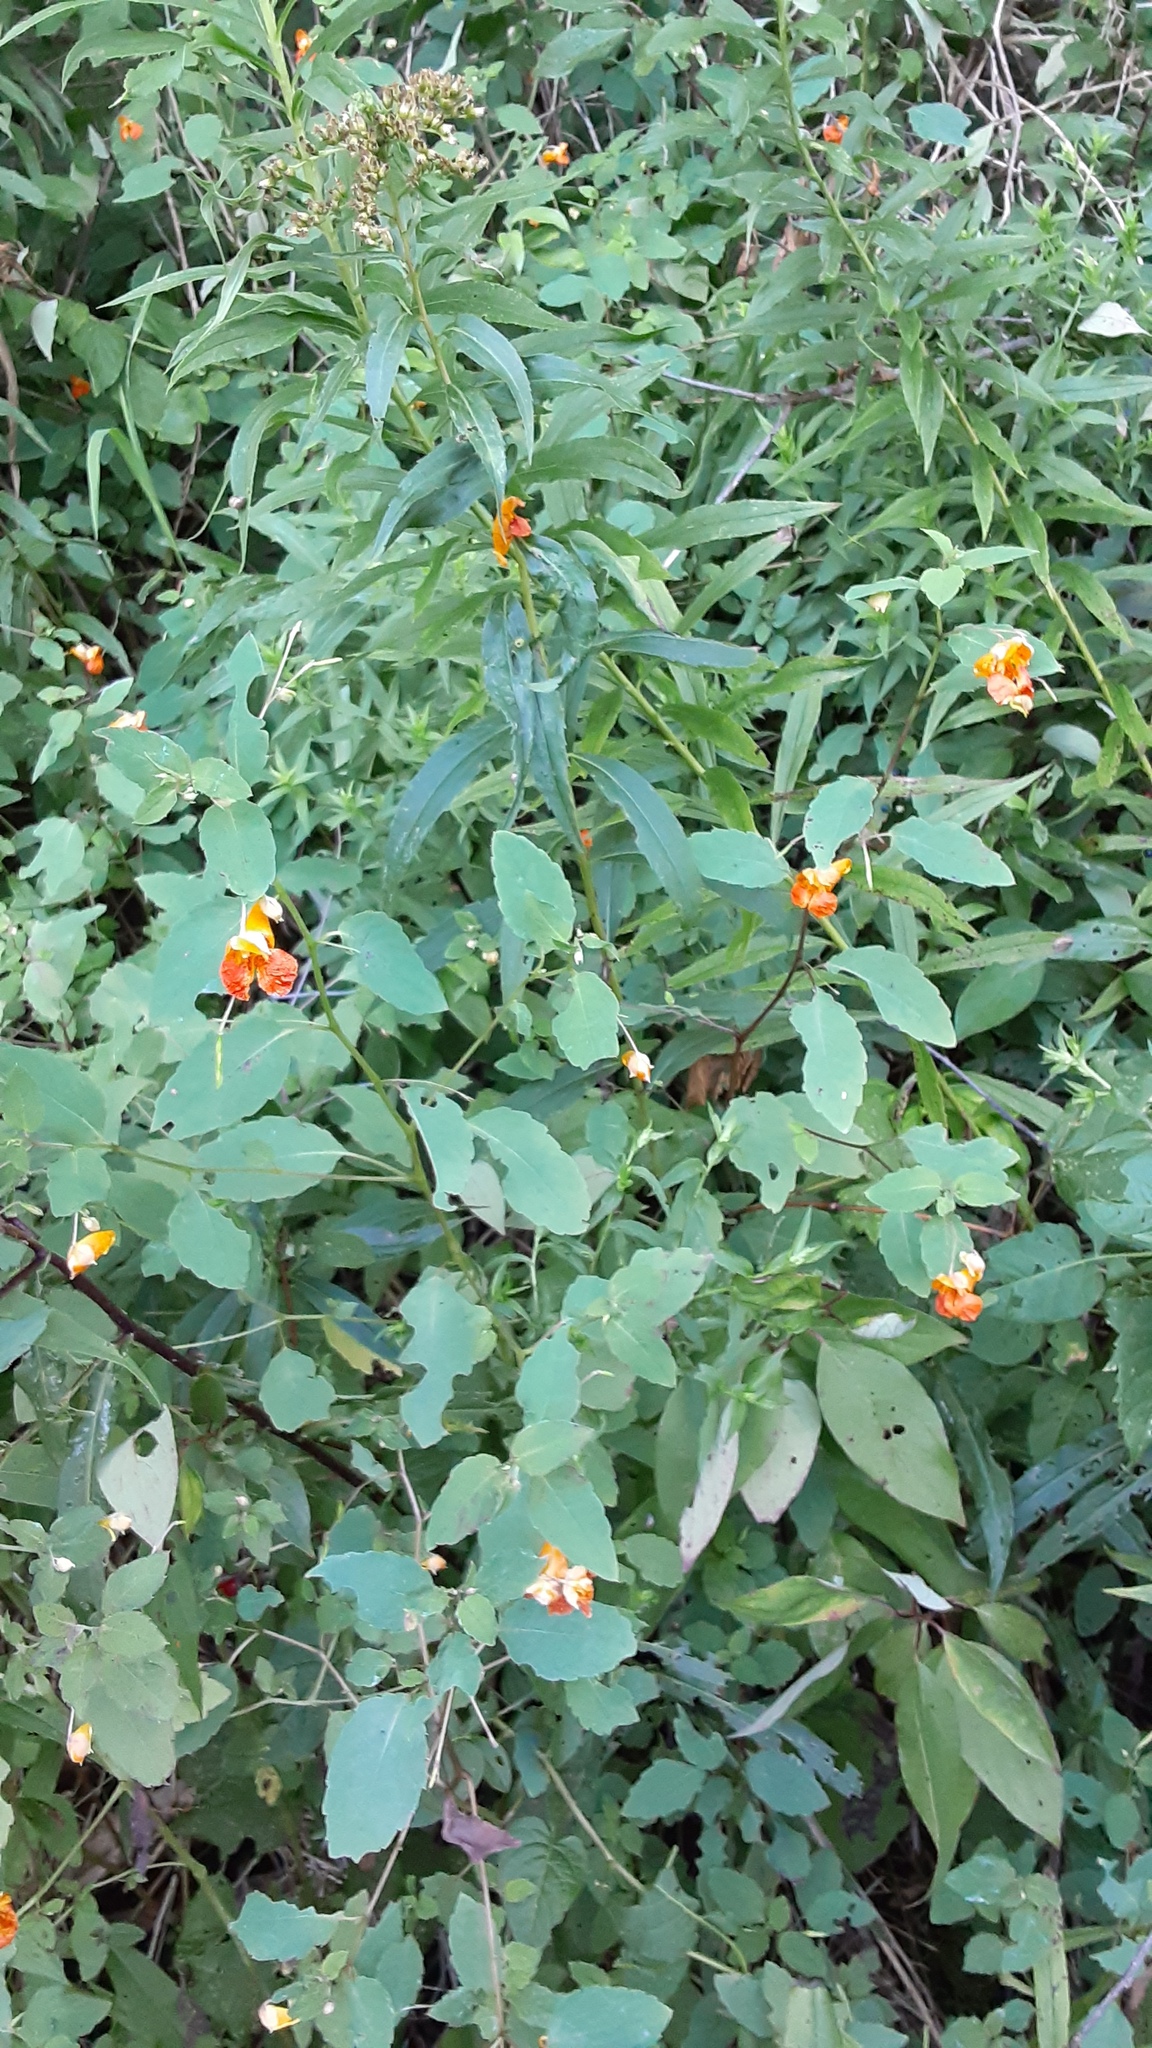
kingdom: Plantae
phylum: Tracheophyta
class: Magnoliopsida
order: Ericales
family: Balsaminaceae
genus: Impatiens
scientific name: Impatiens capensis
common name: Orange balsam
